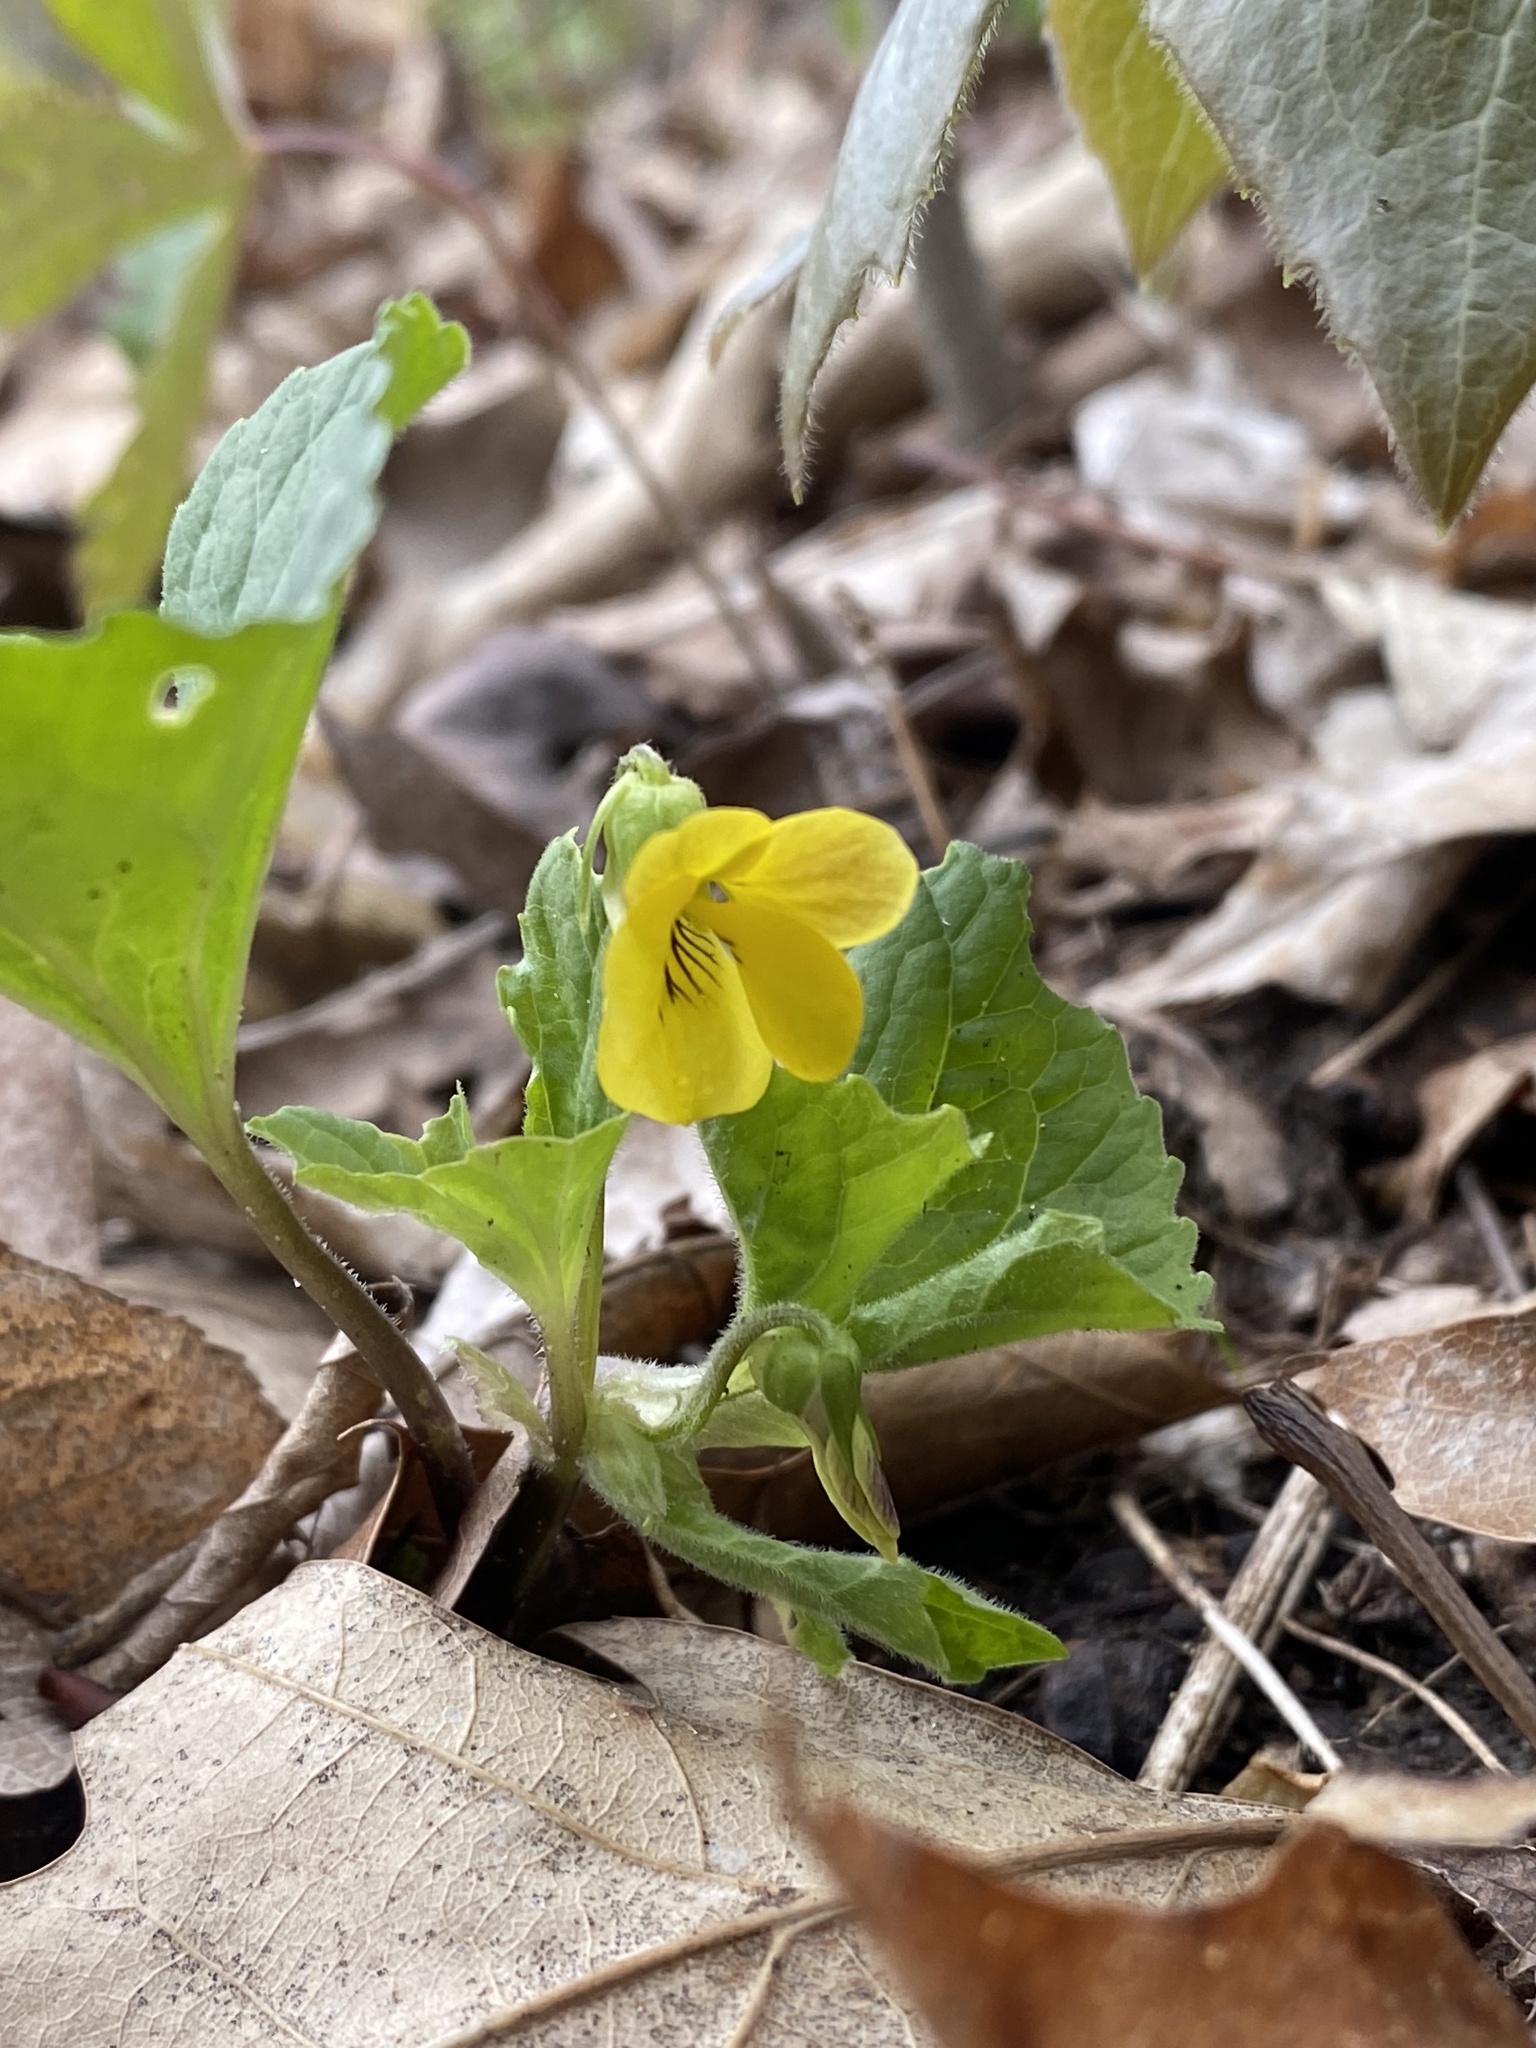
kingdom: Plantae
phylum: Tracheophyta
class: Magnoliopsida
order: Malpighiales
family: Violaceae
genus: Viola
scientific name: Viola eriocarpa
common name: Smooth yellow violet
